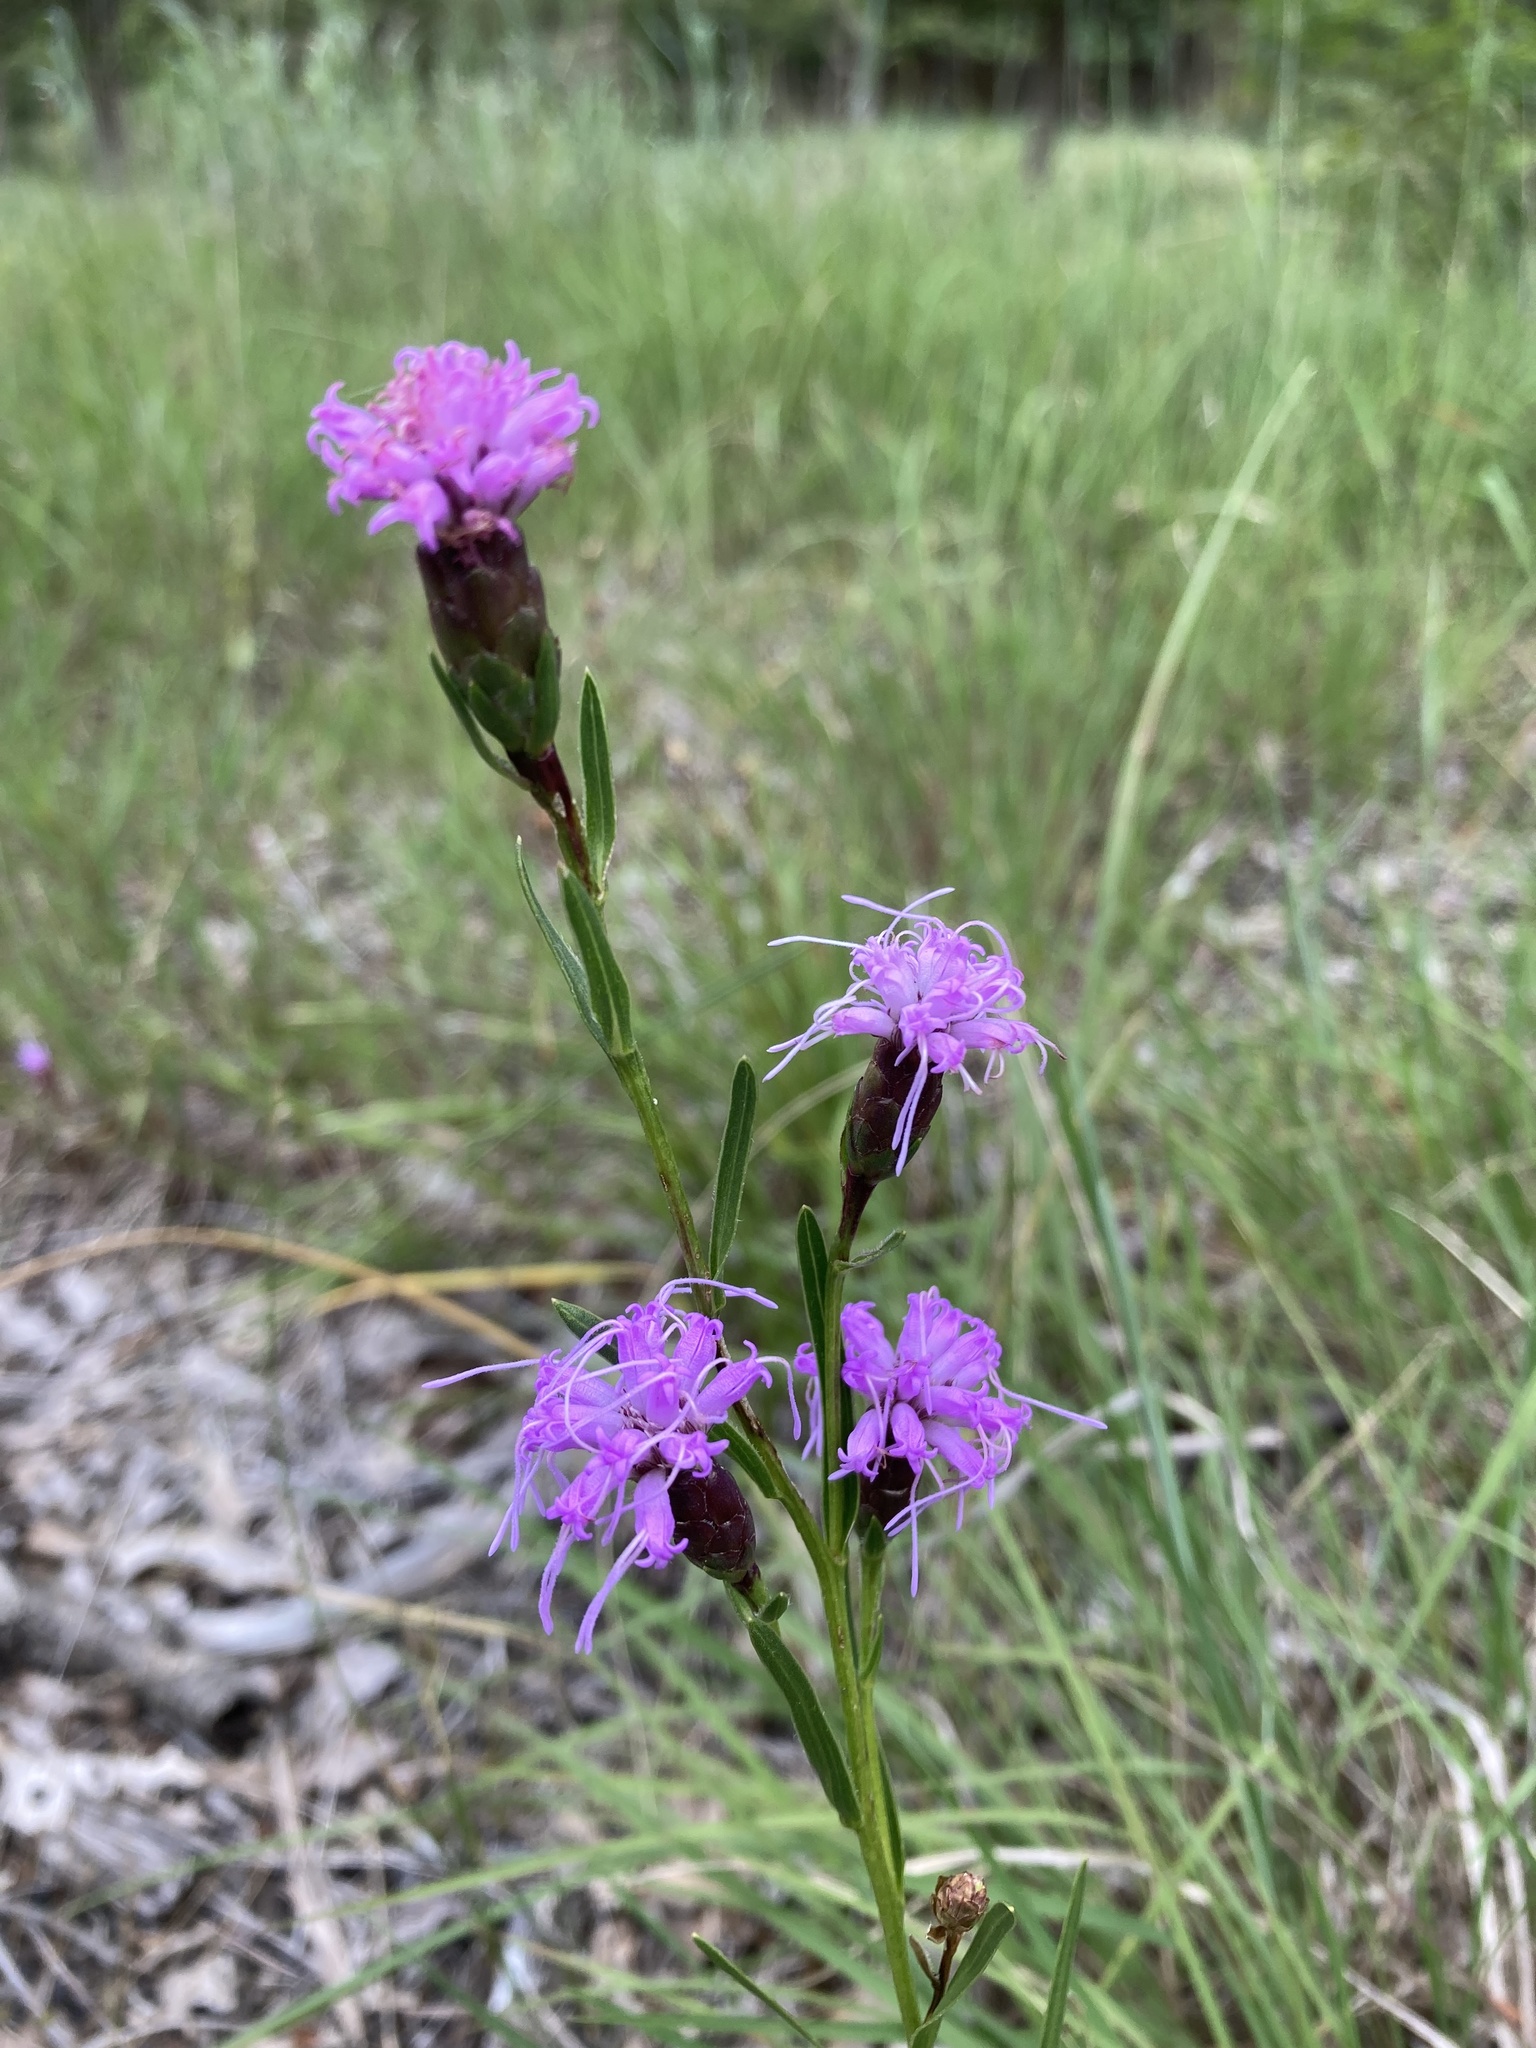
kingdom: Plantae
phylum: Tracheophyta
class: Magnoliopsida
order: Asterales
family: Asteraceae
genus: Liatris
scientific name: Liatris cylindracea
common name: Few-head blazingstar
